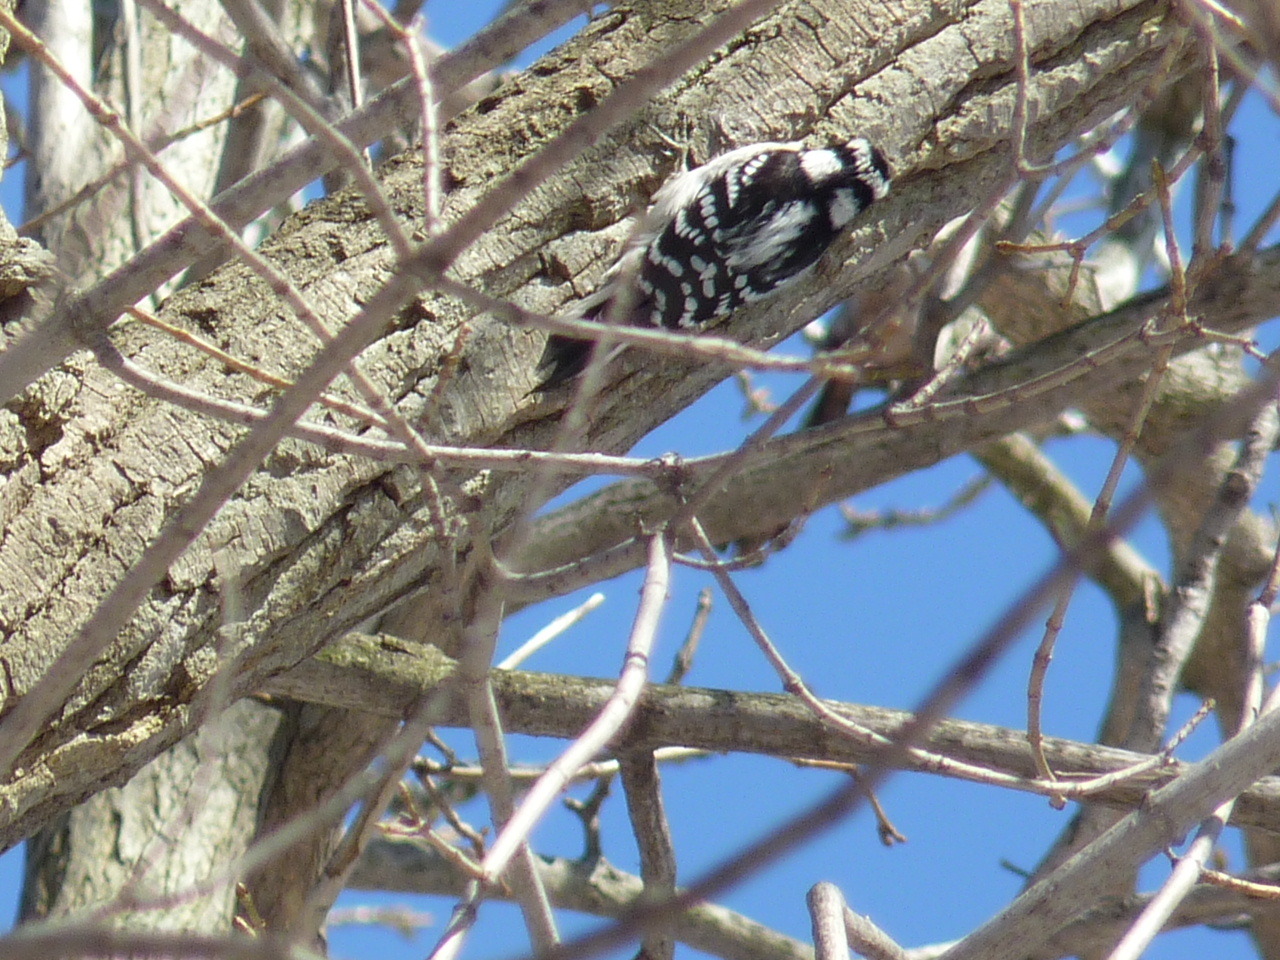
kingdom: Animalia
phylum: Chordata
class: Aves
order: Piciformes
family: Picidae
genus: Dryobates
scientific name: Dryobates pubescens
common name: Downy woodpecker
